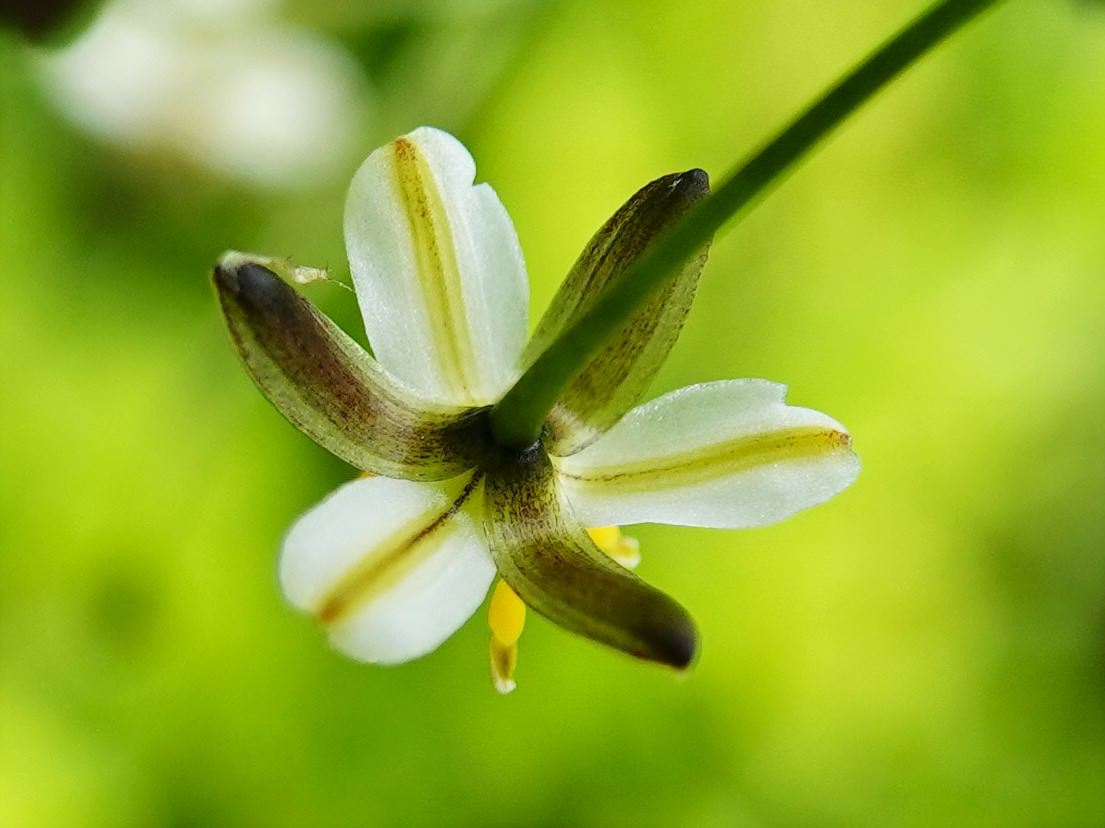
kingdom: Plantae
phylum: Tracheophyta
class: Liliopsida
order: Asparagales
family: Asphodelaceae
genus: Dianella
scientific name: Dianella nigra
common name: New zealand-blueberry
